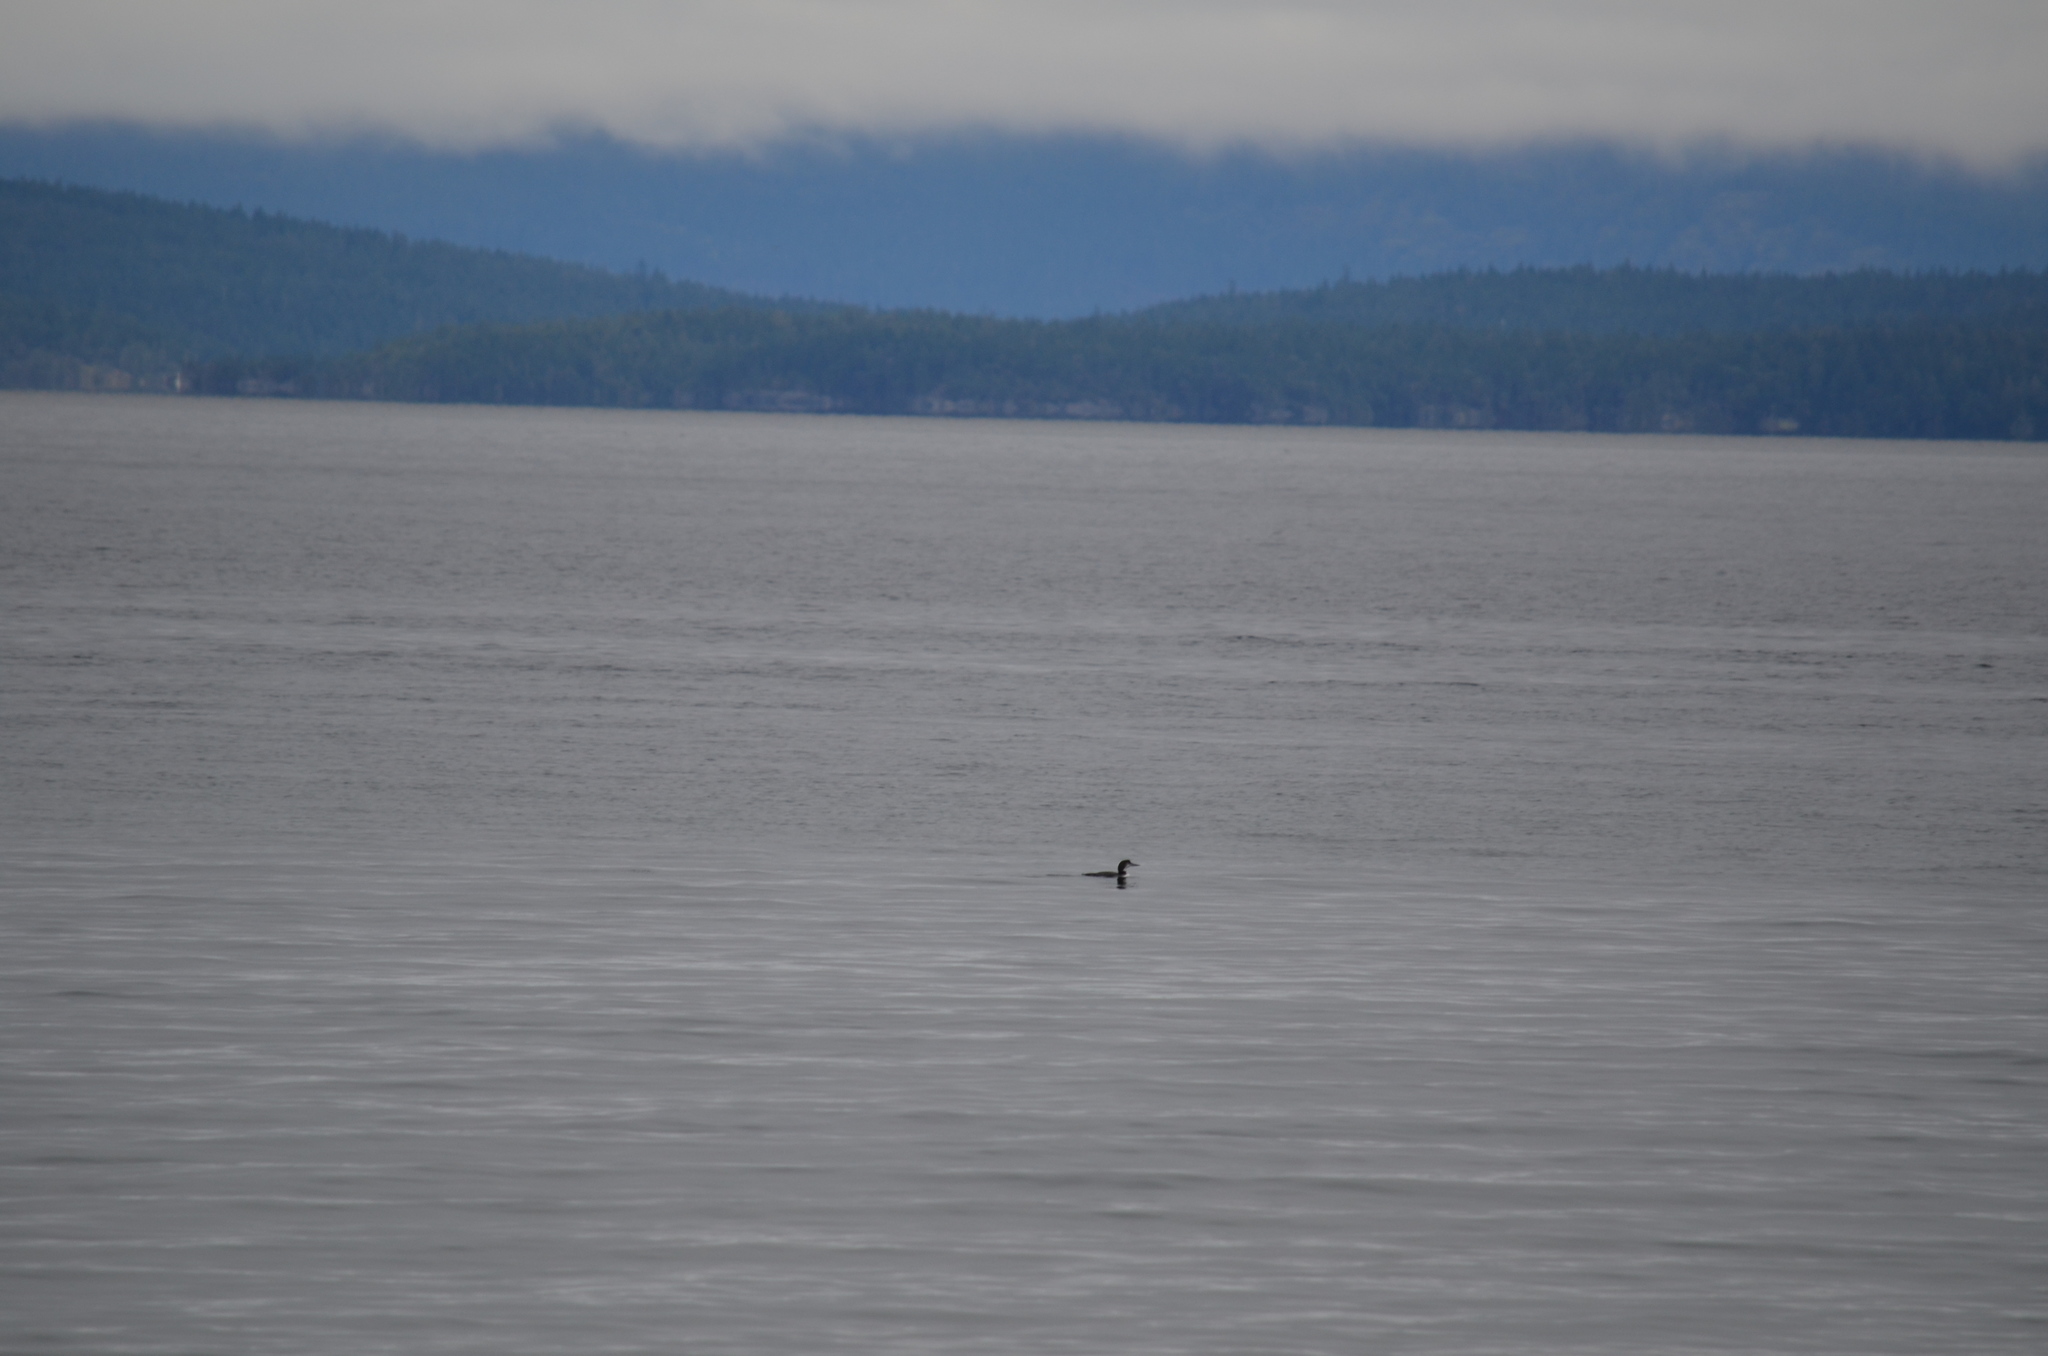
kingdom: Animalia
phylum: Chordata
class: Aves
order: Gaviiformes
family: Gaviidae
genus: Gavia
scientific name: Gavia immer
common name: Common loon
